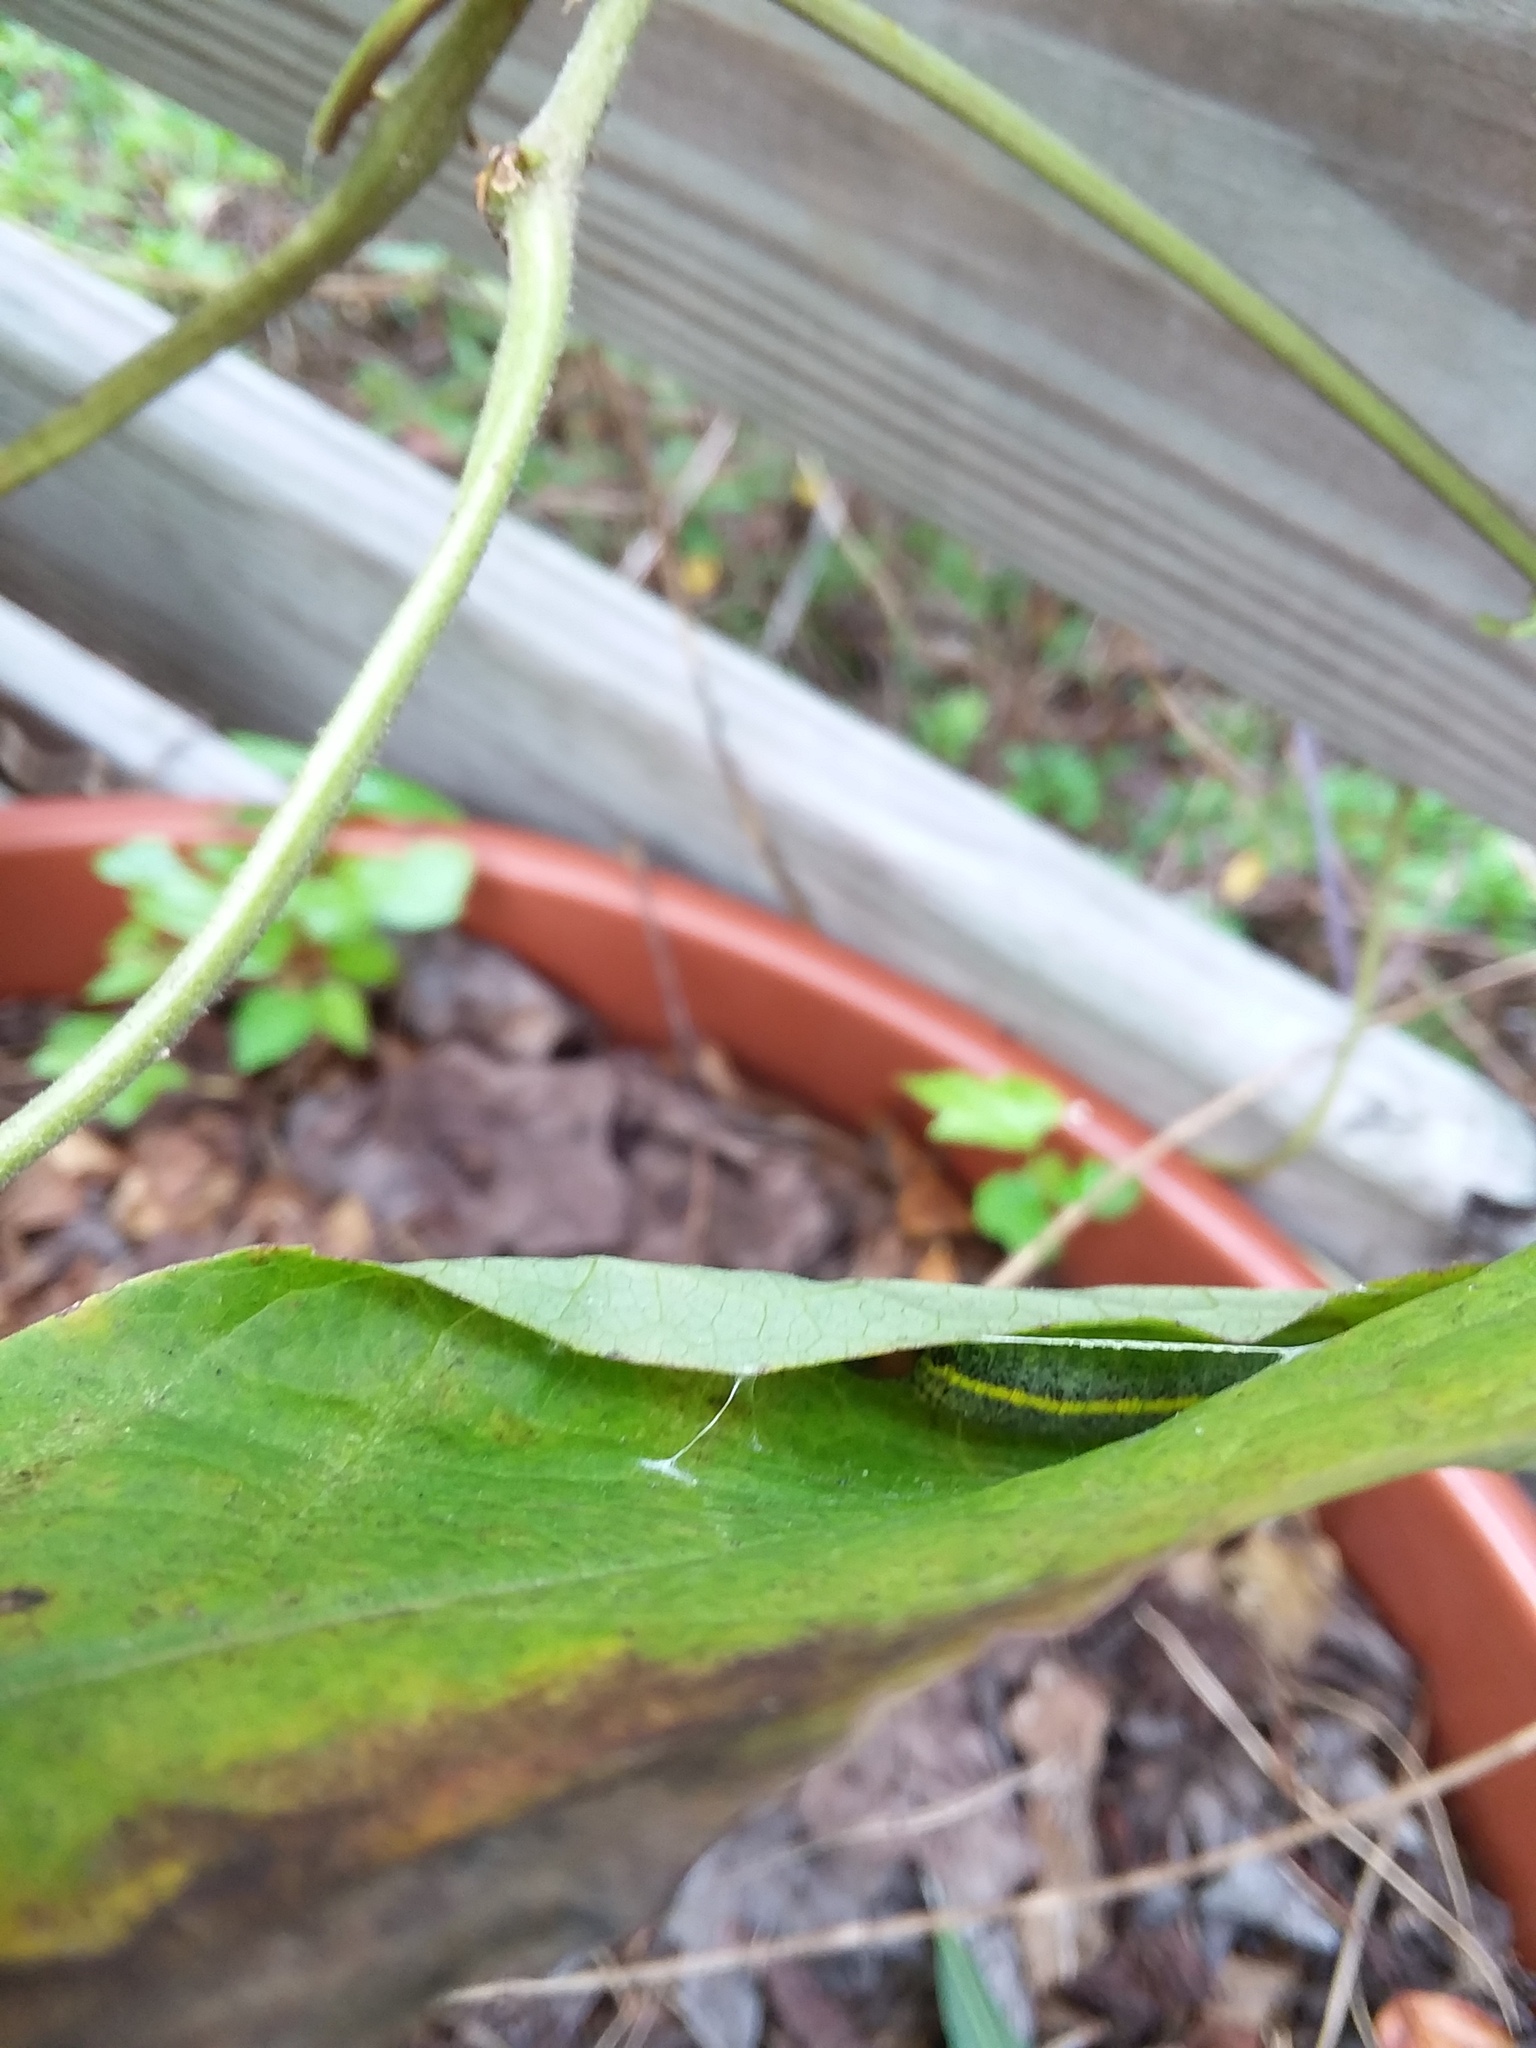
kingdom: Animalia
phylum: Arthropoda
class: Insecta
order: Lepidoptera
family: Hesperiidae
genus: Urbanus
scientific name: Urbanus proteus
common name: Long-tailed skipper
